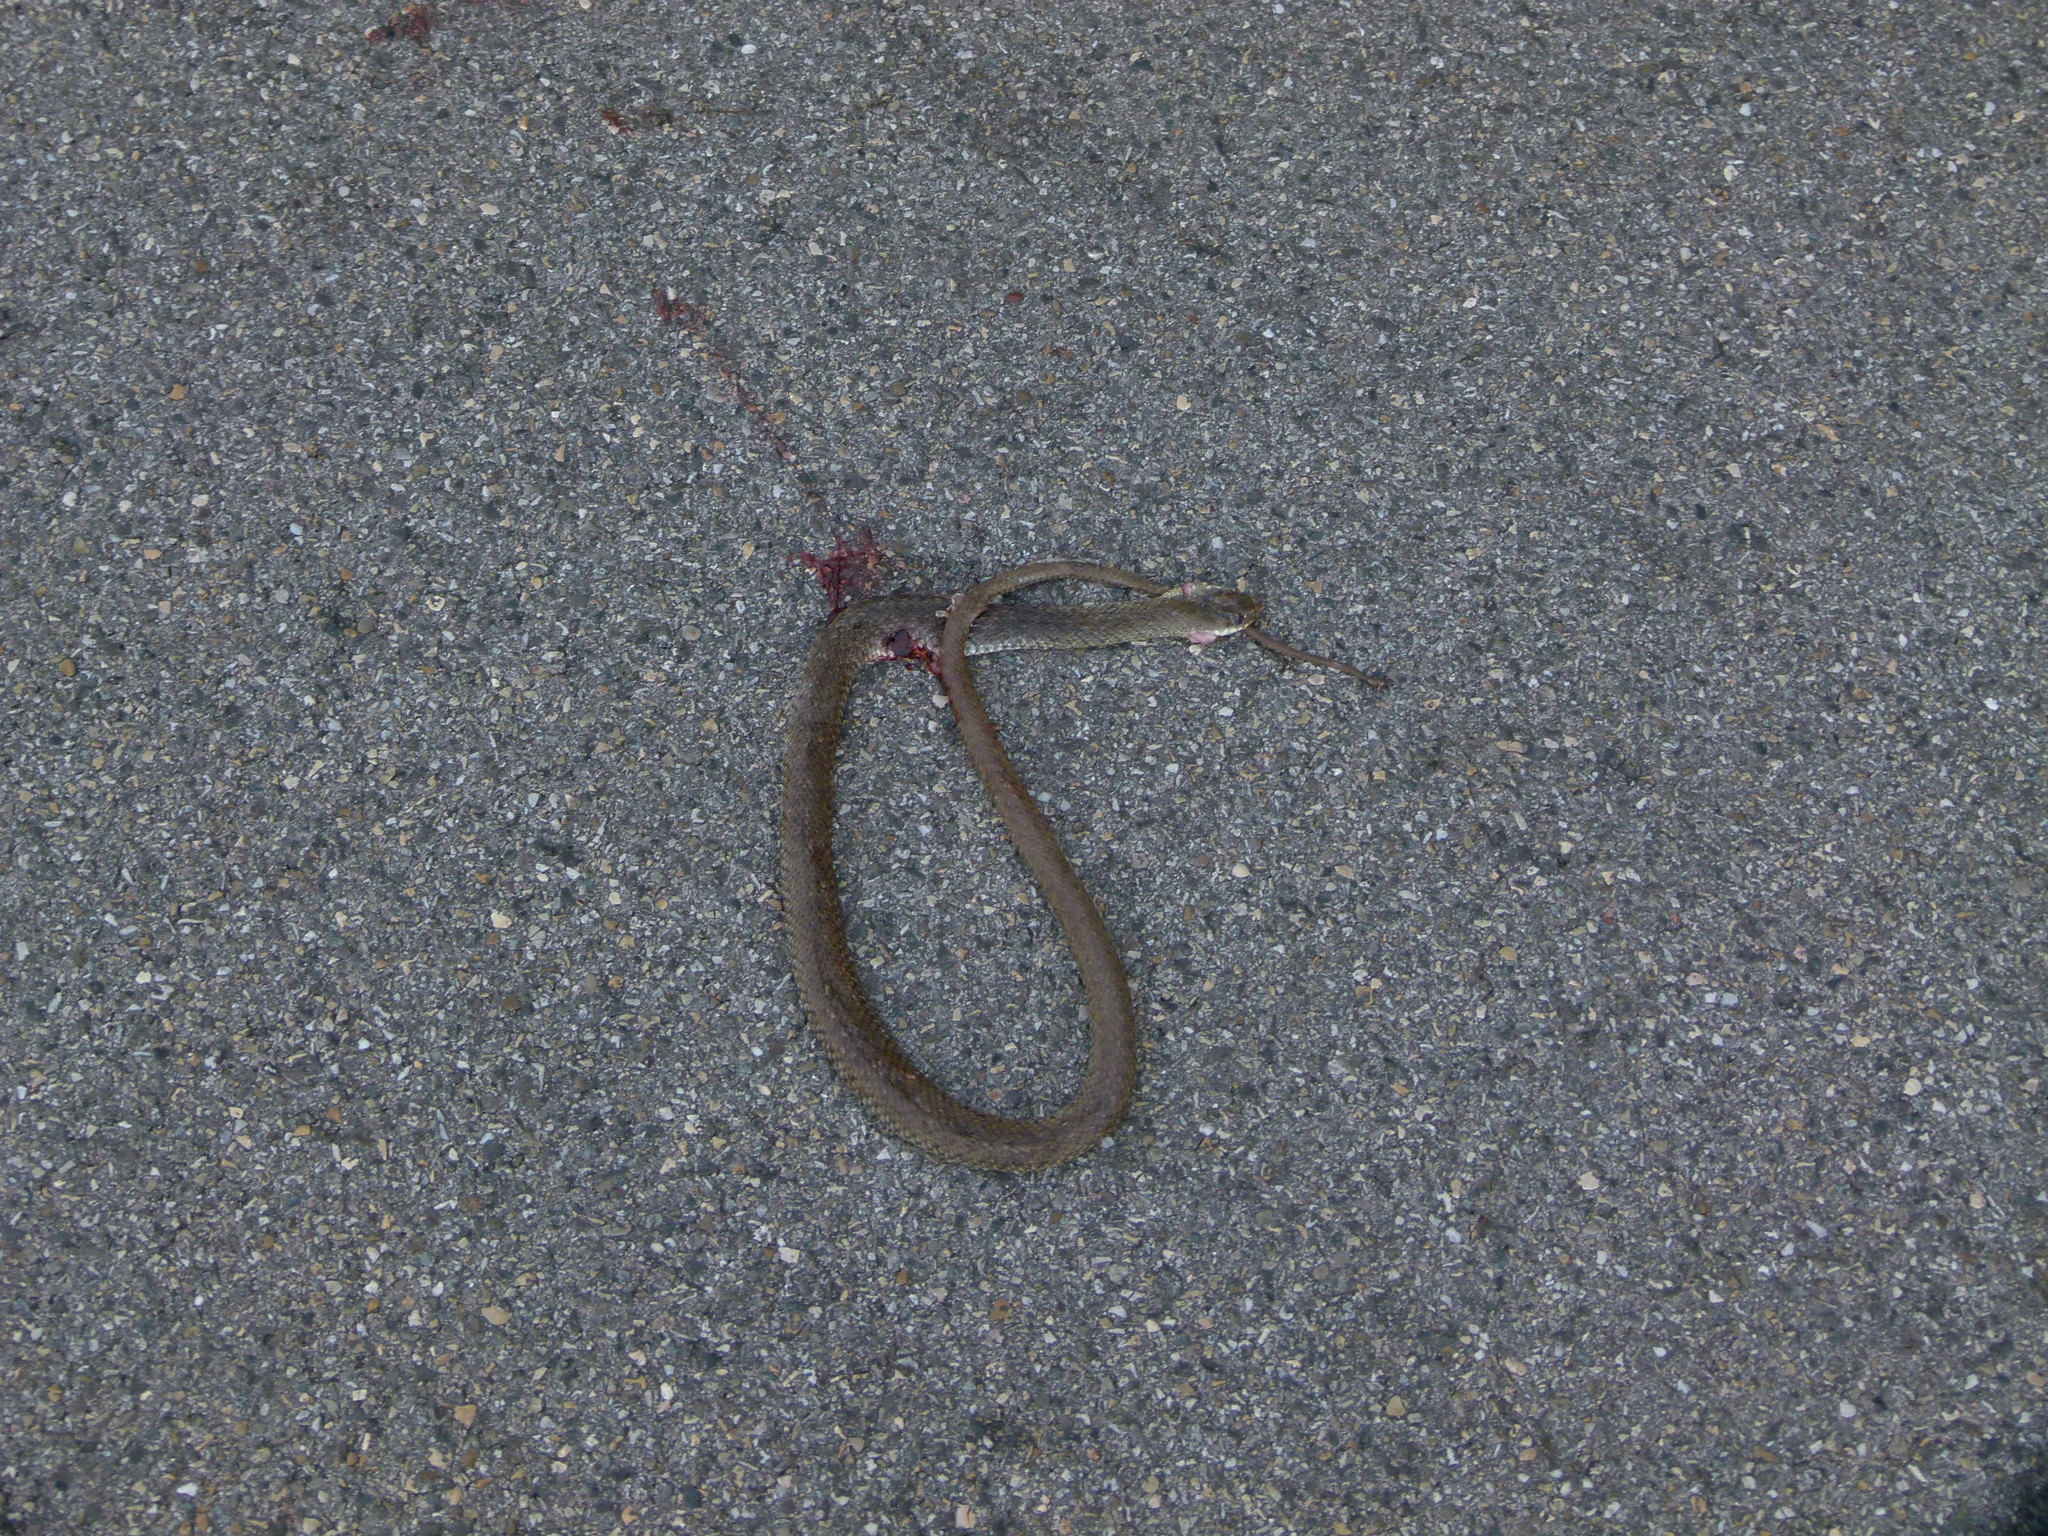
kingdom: Animalia
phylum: Chordata
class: Squamata
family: Psammophiidae
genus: Malpolon
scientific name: Malpolon monspessulanus
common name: Montpellier snake
